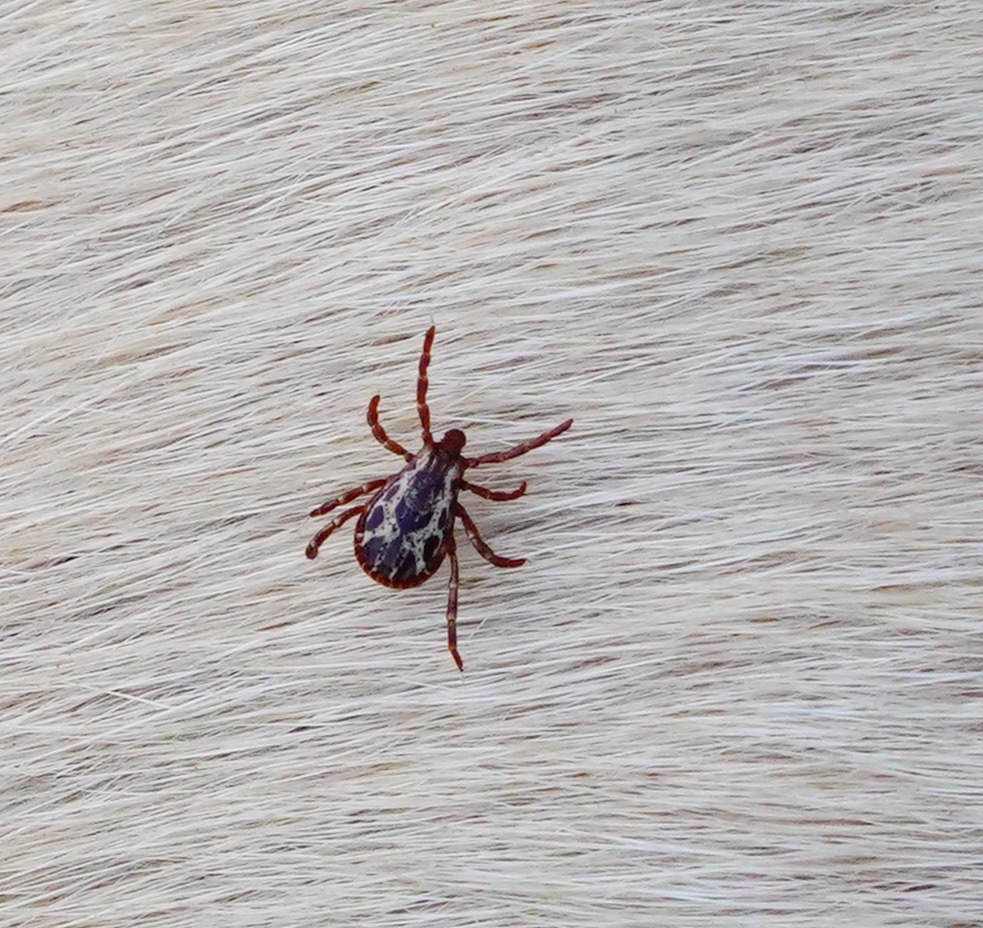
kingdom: Animalia
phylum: Arthropoda
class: Arachnida
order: Ixodida
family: Ixodidae
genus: Dermacentor
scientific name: Dermacentor similis
